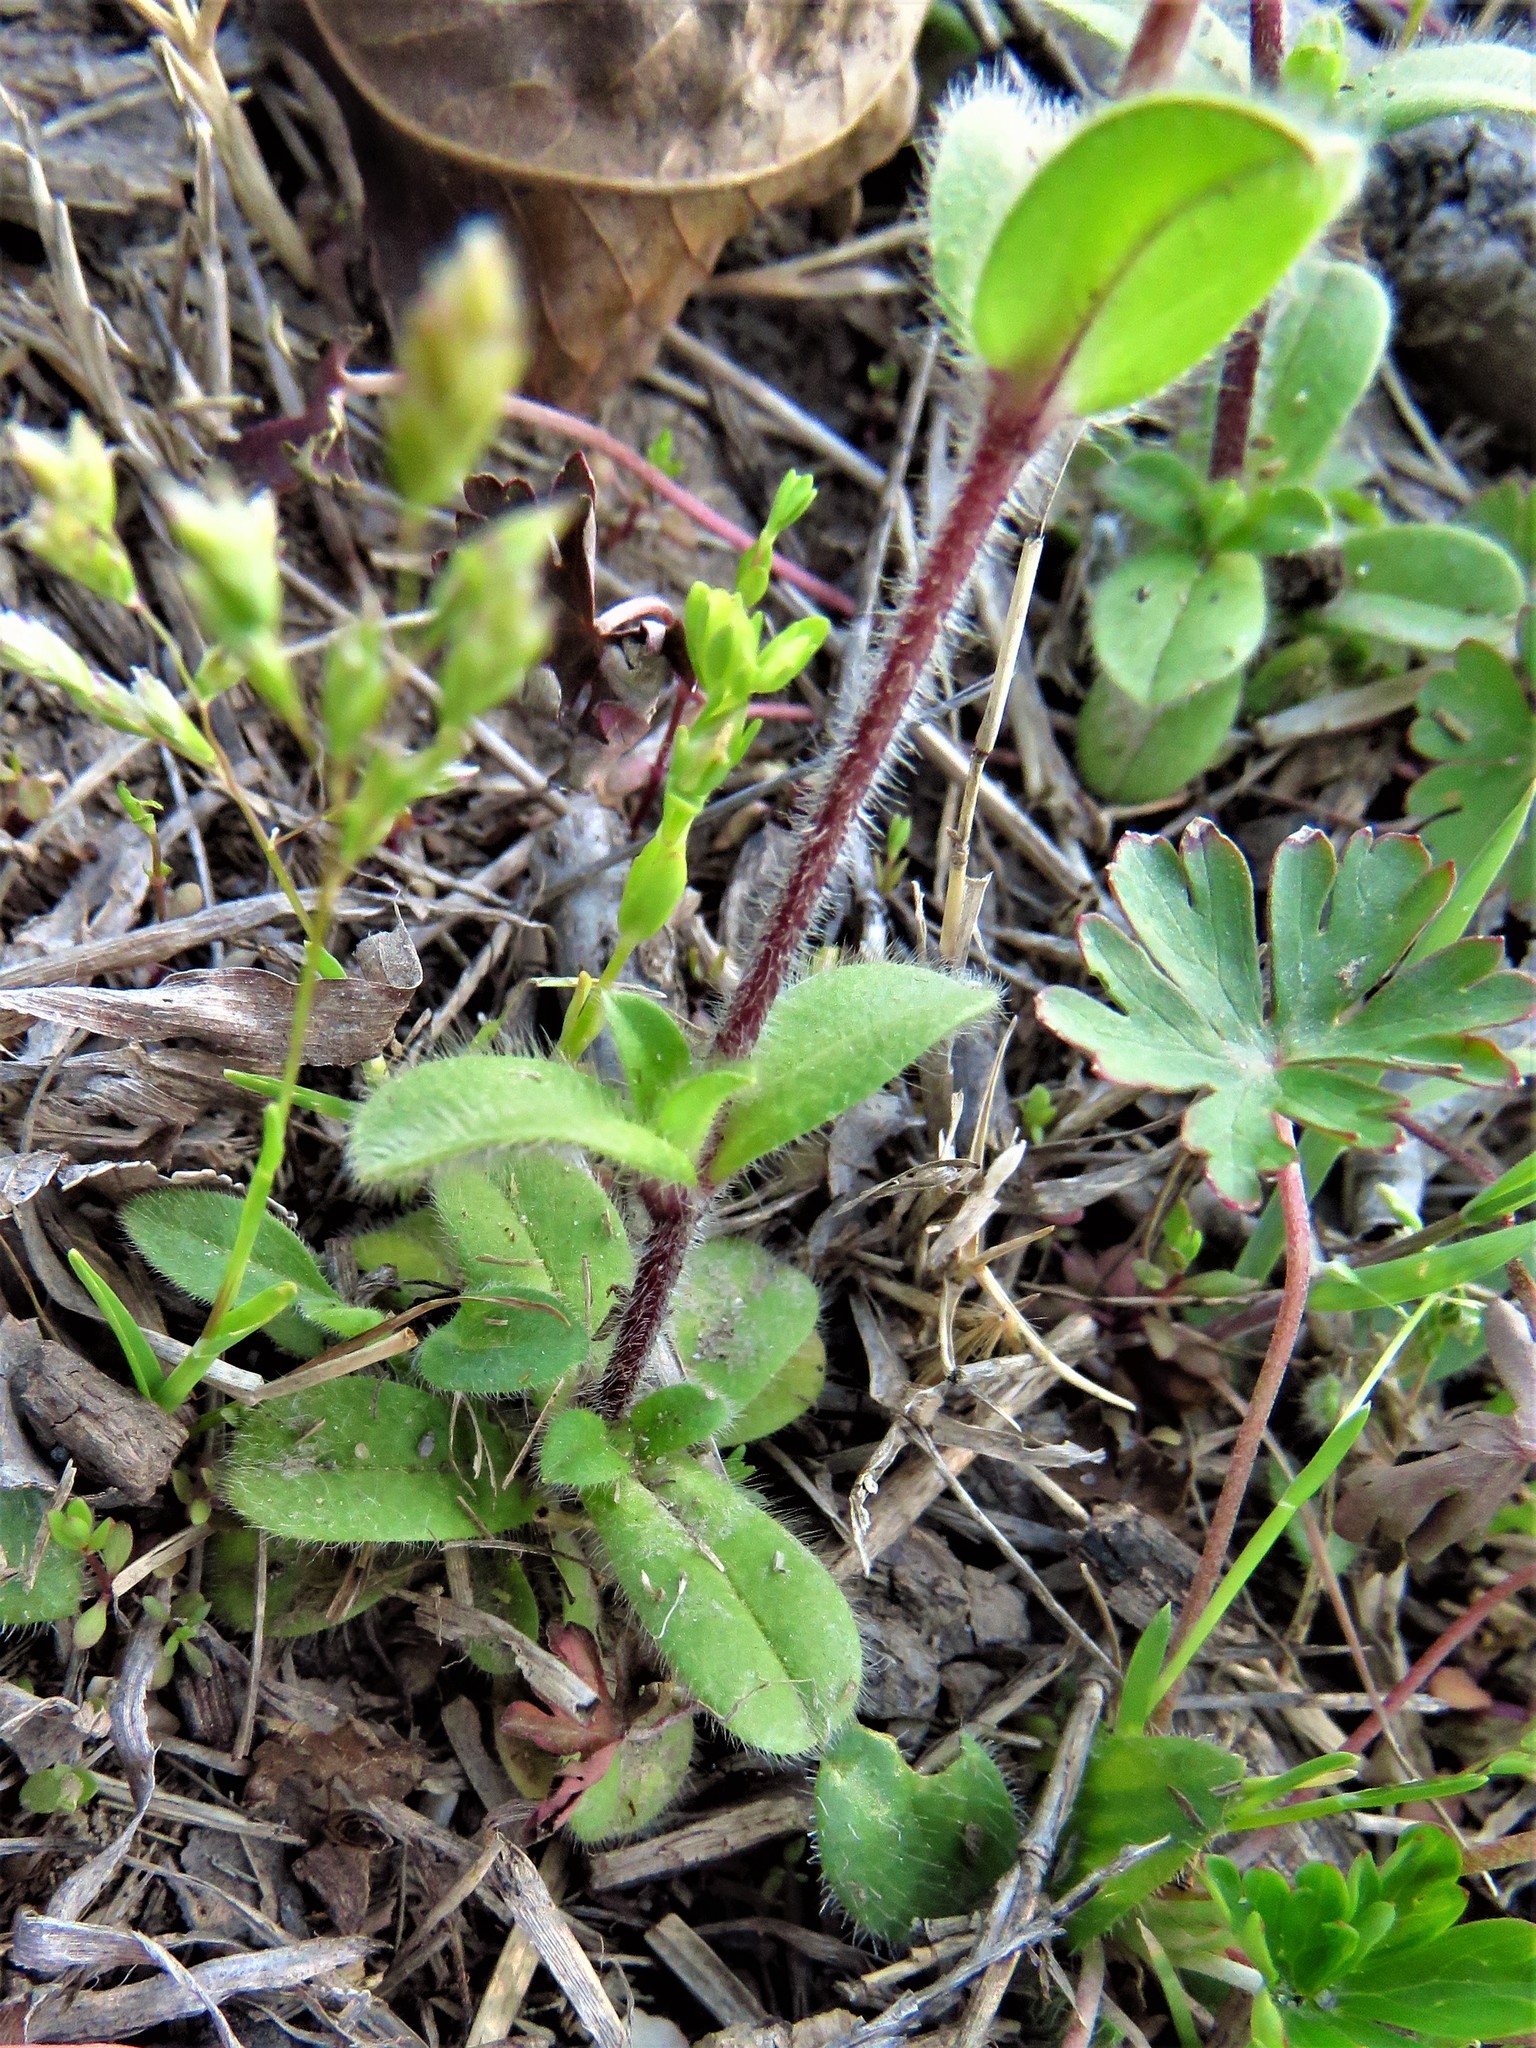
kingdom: Plantae
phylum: Tracheophyta
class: Magnoliopsida
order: Caryophyllales
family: Caryophyllaceae
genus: Cerastium
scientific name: Cerastium glomeratum
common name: Sticky chickweed
